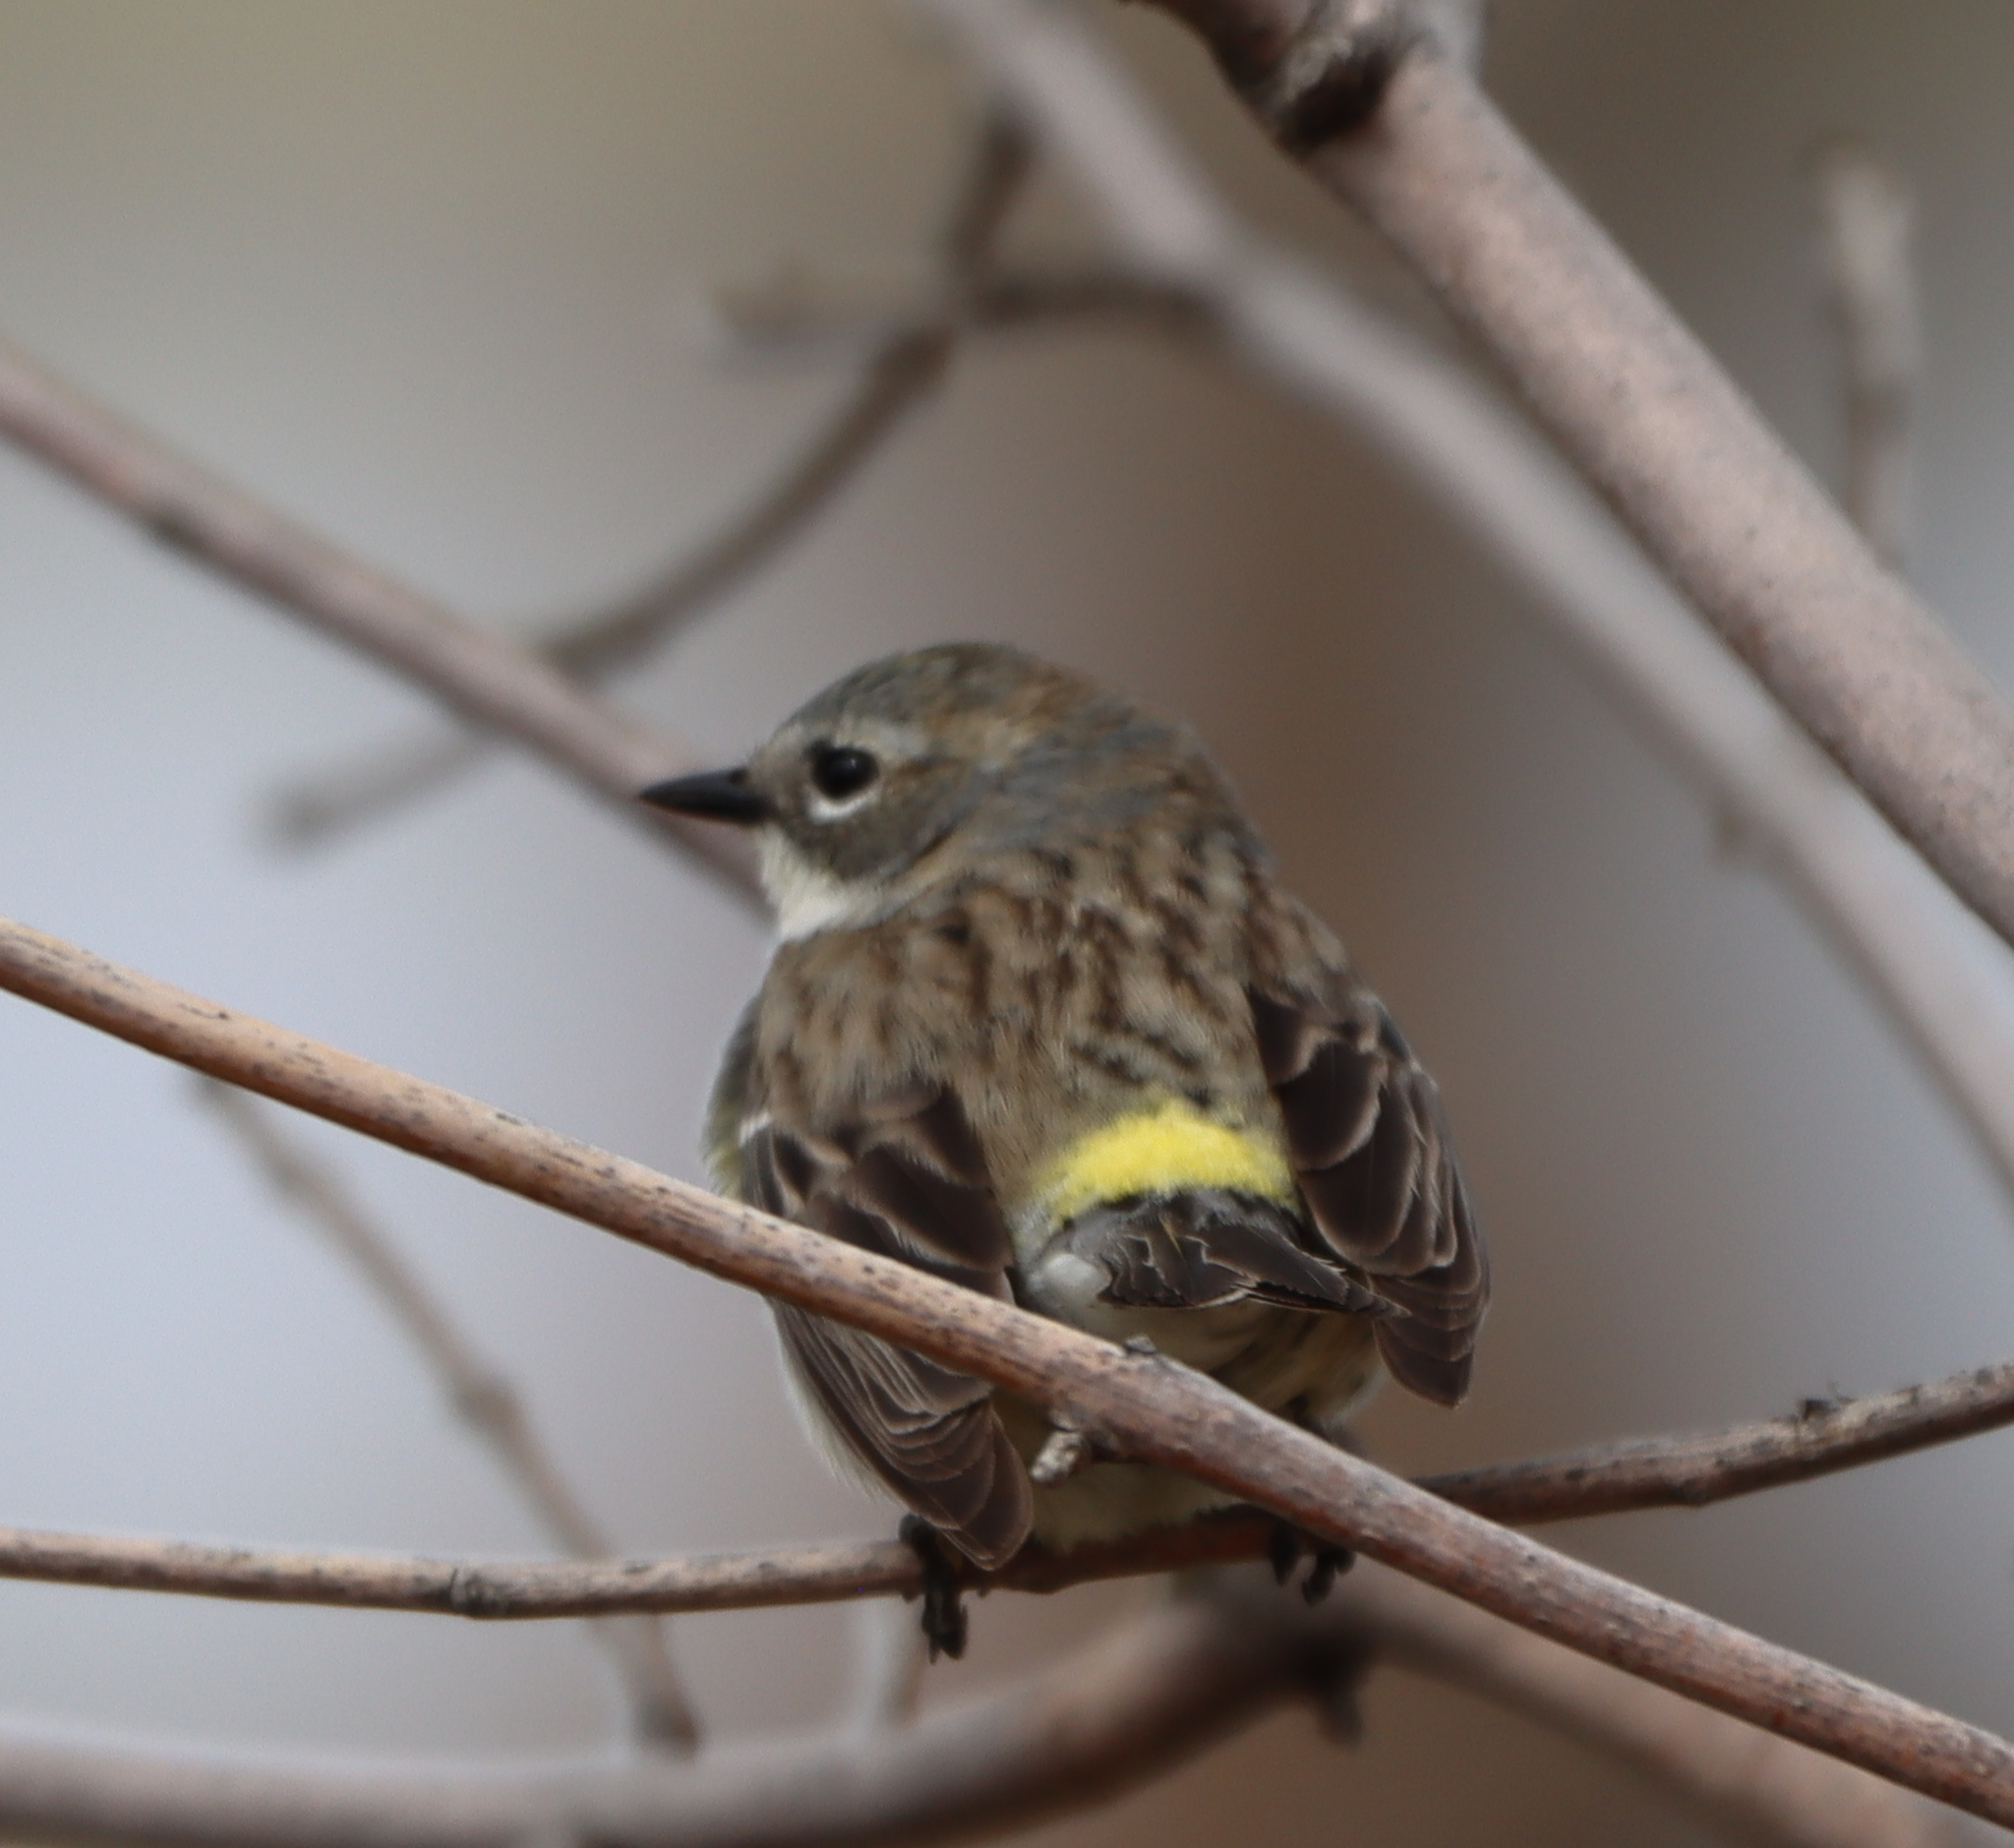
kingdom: Animalia
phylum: Chordata
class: Aves
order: Passeriformes
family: Parulidae
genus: Setophaga
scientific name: Setophaga coronata
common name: Myrtle warbler
